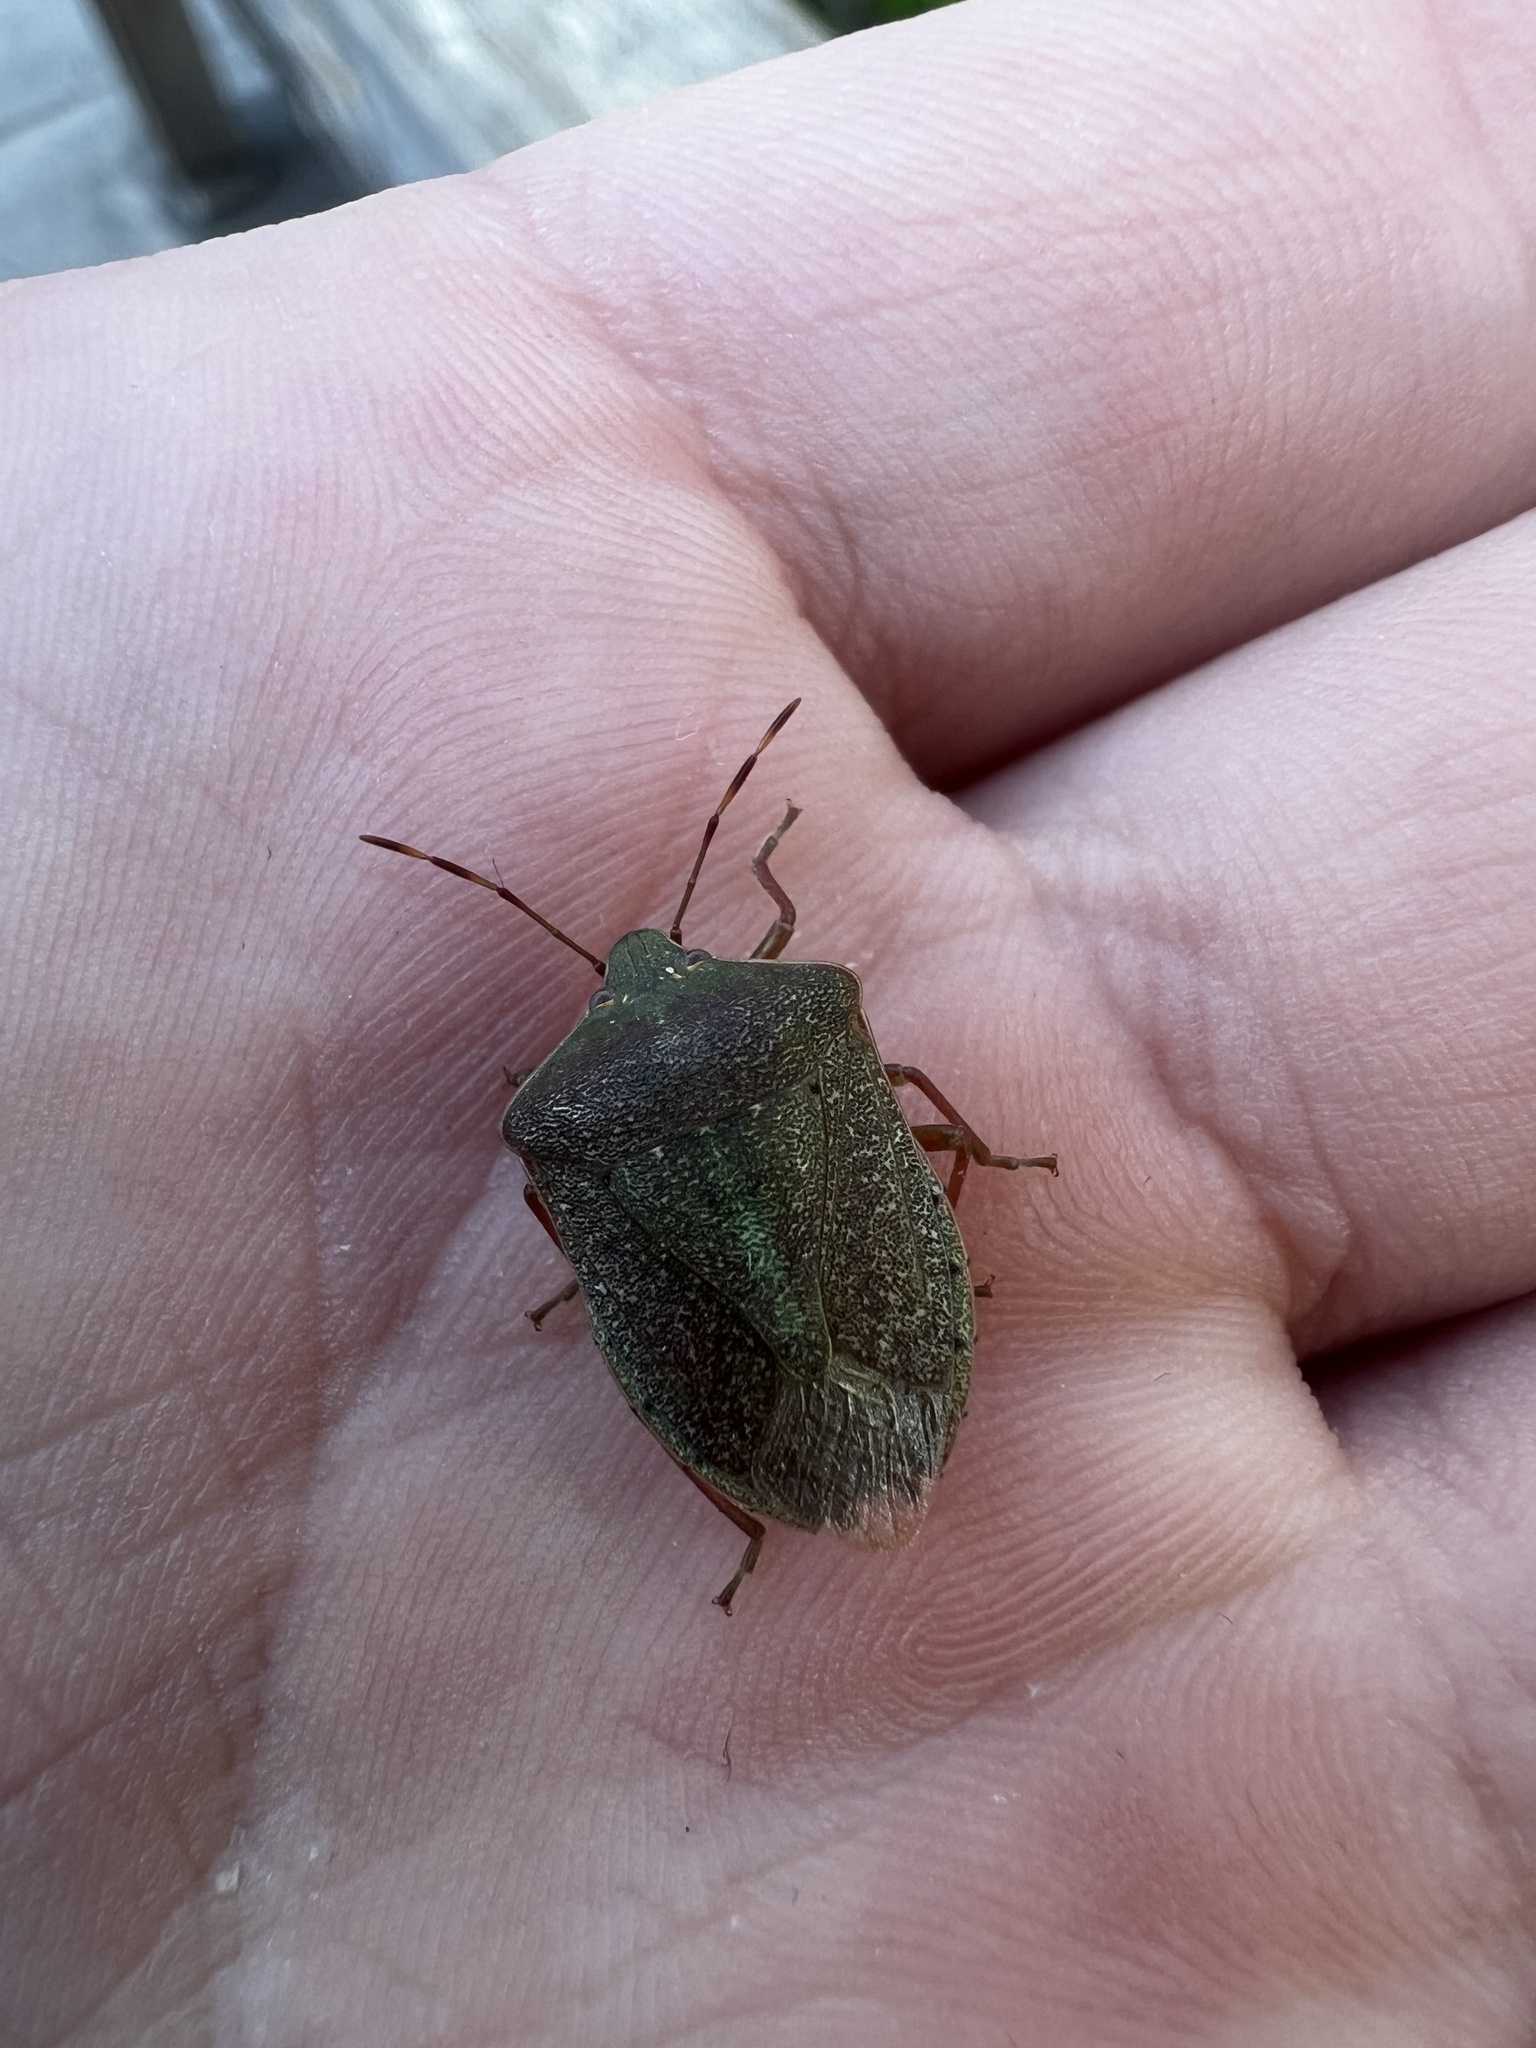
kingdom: Animalia
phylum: Arthropoda
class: Insecta
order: Hemiptera
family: Pentatomidae
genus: Nezara
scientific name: Nezara viridula
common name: Southern green stink bug
